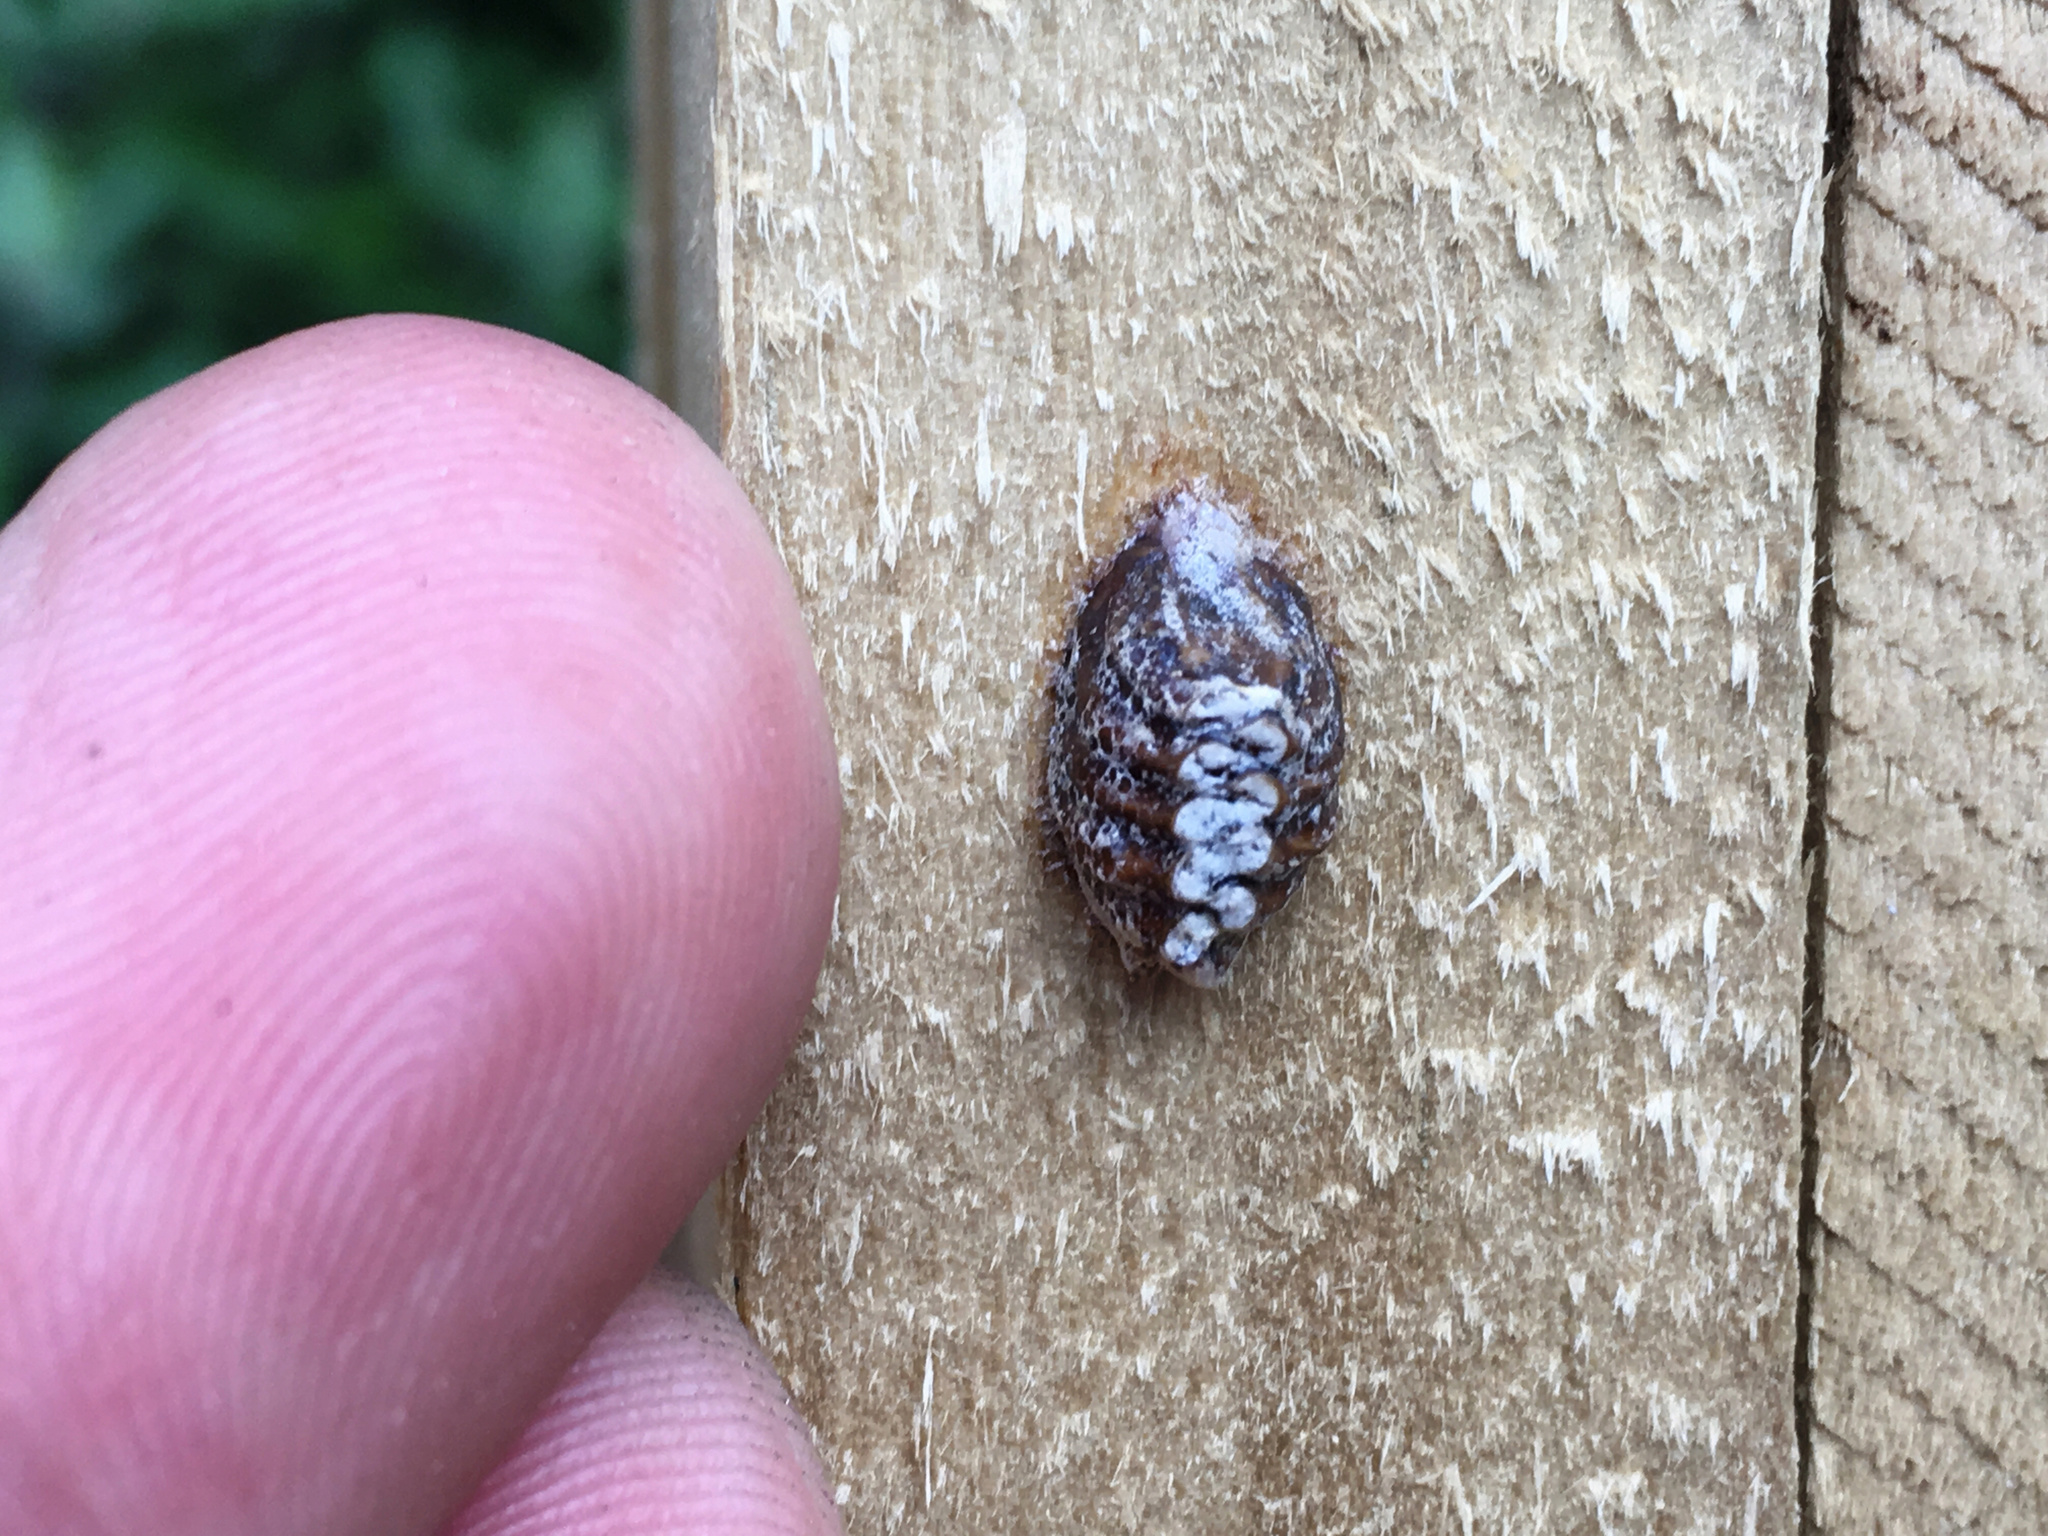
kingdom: Animalia
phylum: Arthropoda
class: Insecta
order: Mantodea
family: Mantidae
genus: Orthodera
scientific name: Orthodera novaezealandiae
